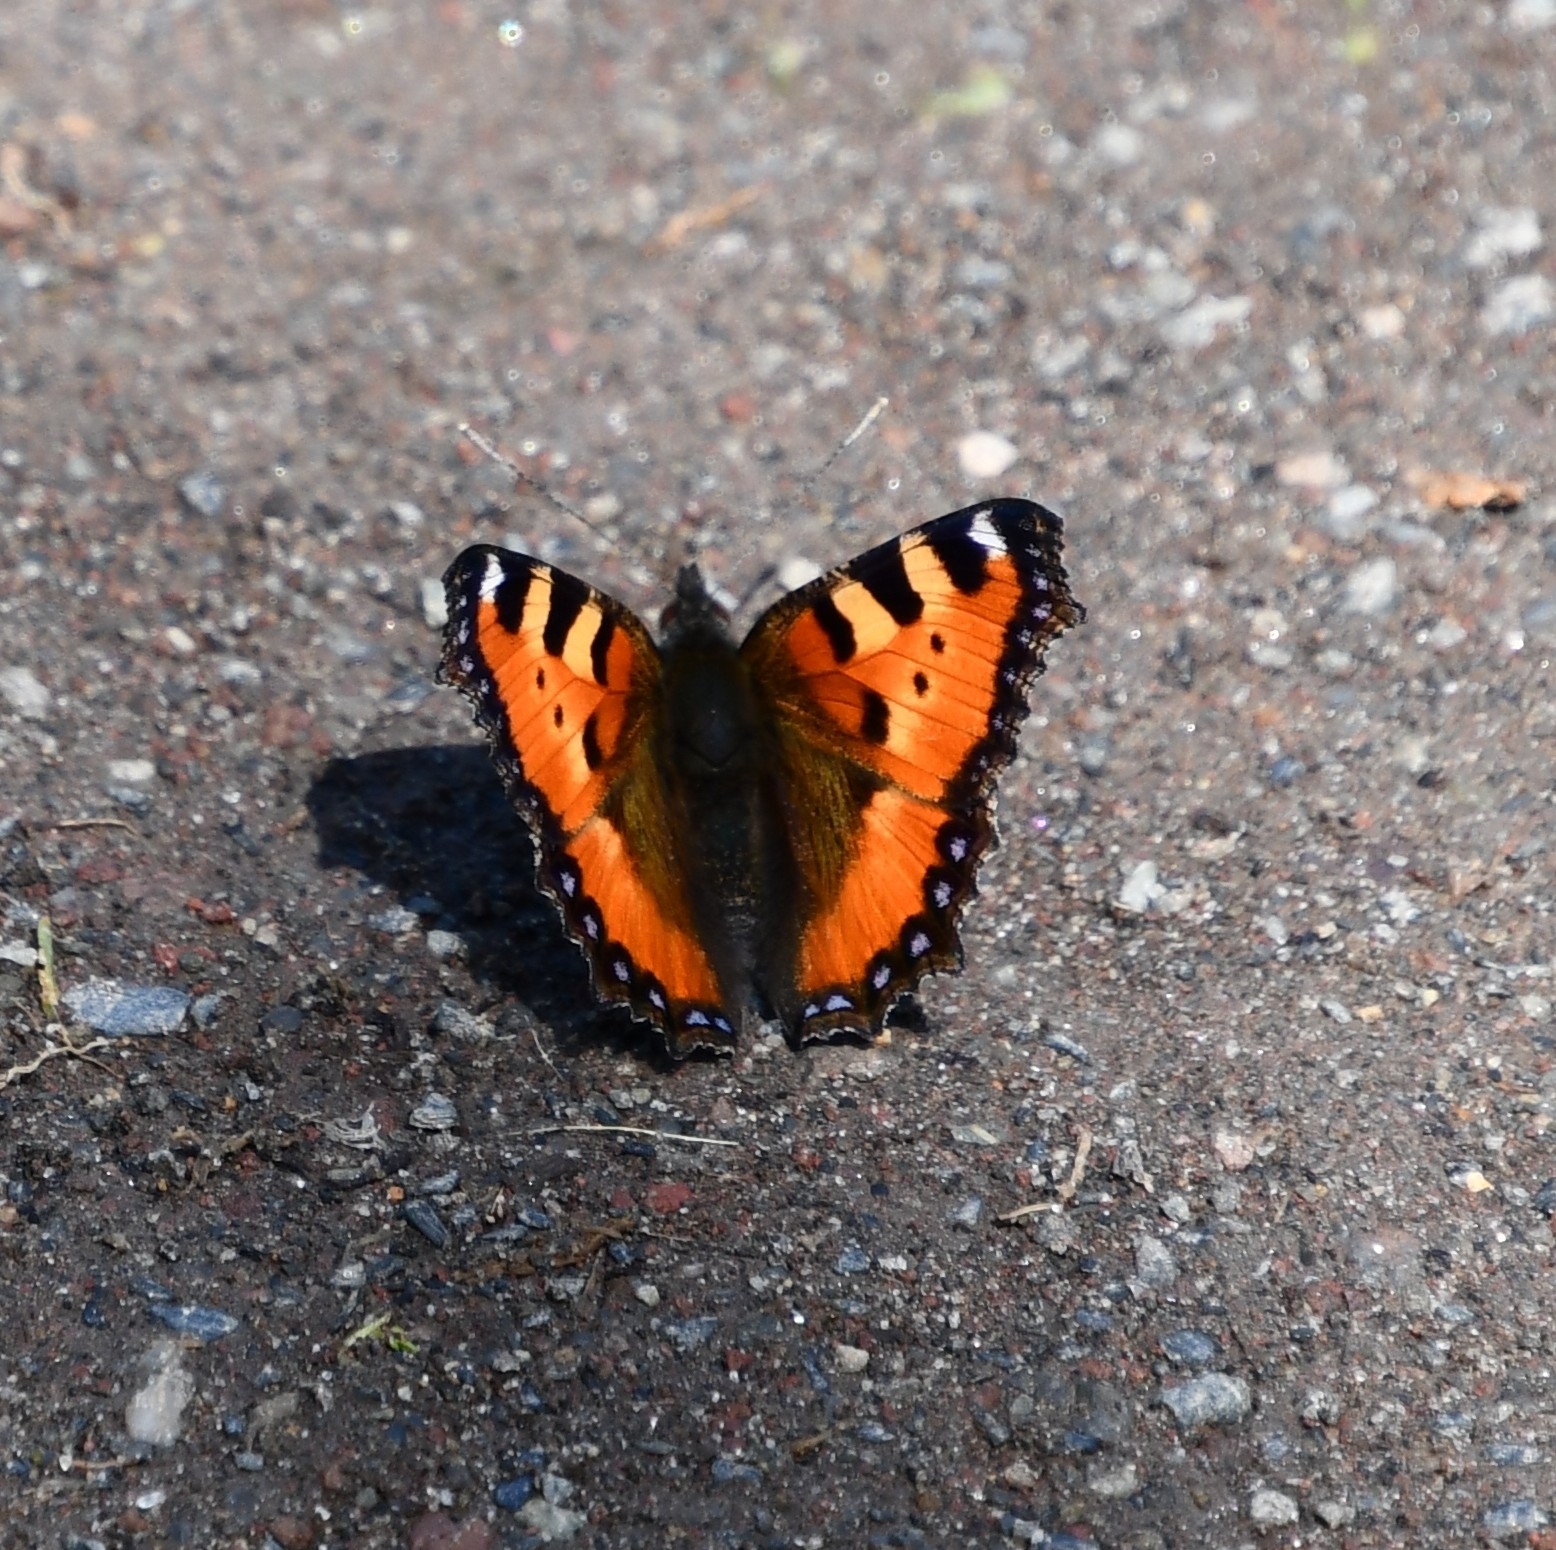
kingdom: Animalia
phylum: Arthropoda
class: Insecta
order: Lepidoptera
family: Nymphalidae
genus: Aglais
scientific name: Aglais urticae
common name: Small tortoiseshell
